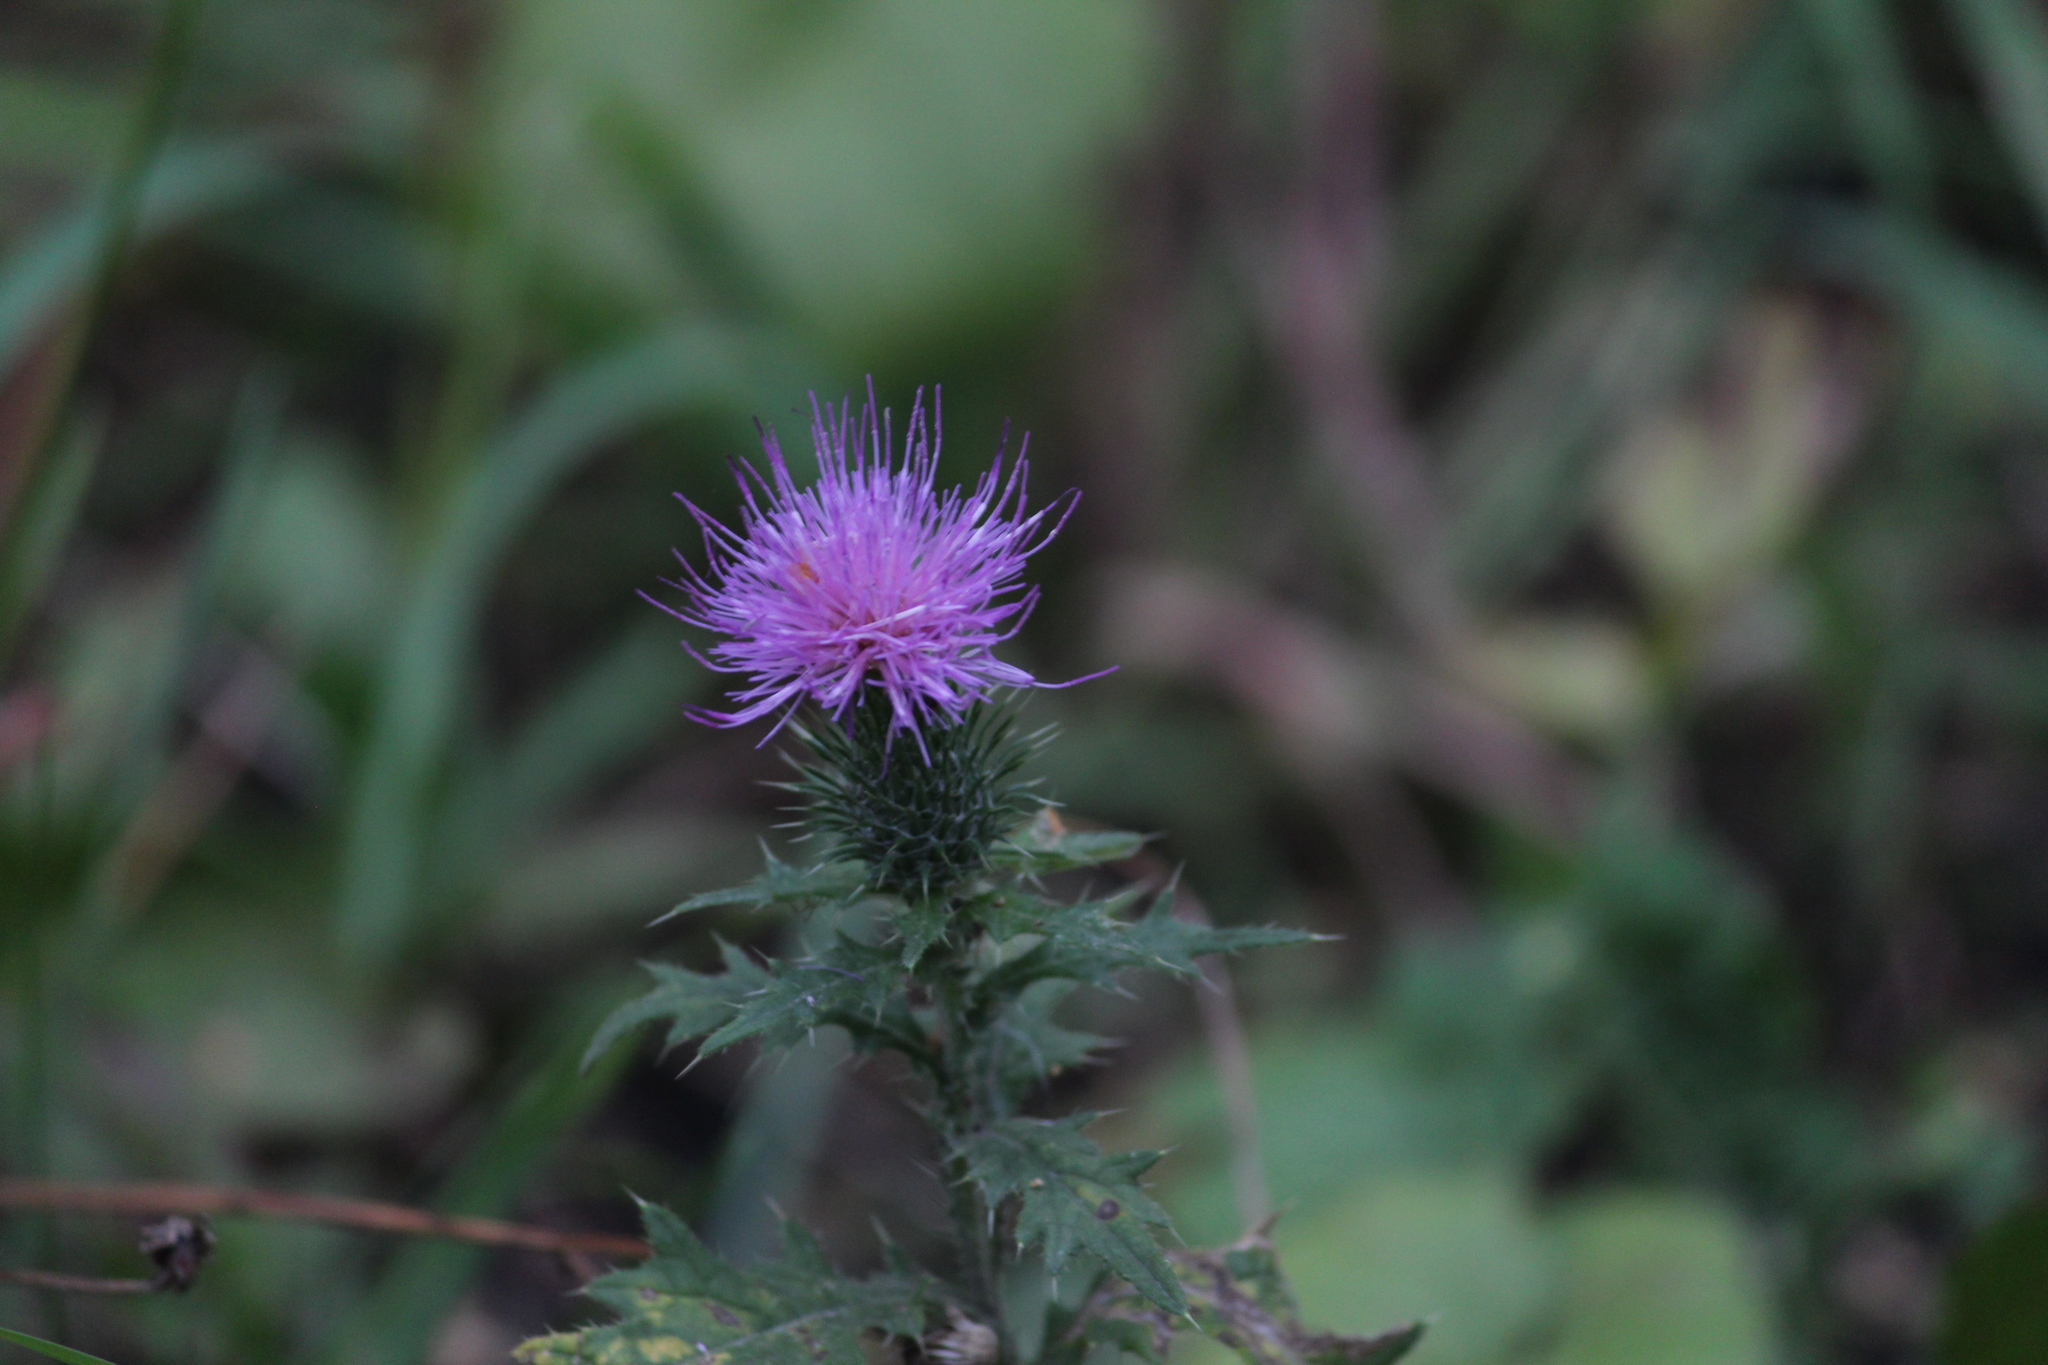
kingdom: Plantae
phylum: Tracheophyta
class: Magnoliopsida
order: Asterales
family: Asteraceae
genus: Cirsium
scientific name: Cirsium vulgare
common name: Bull thistle
